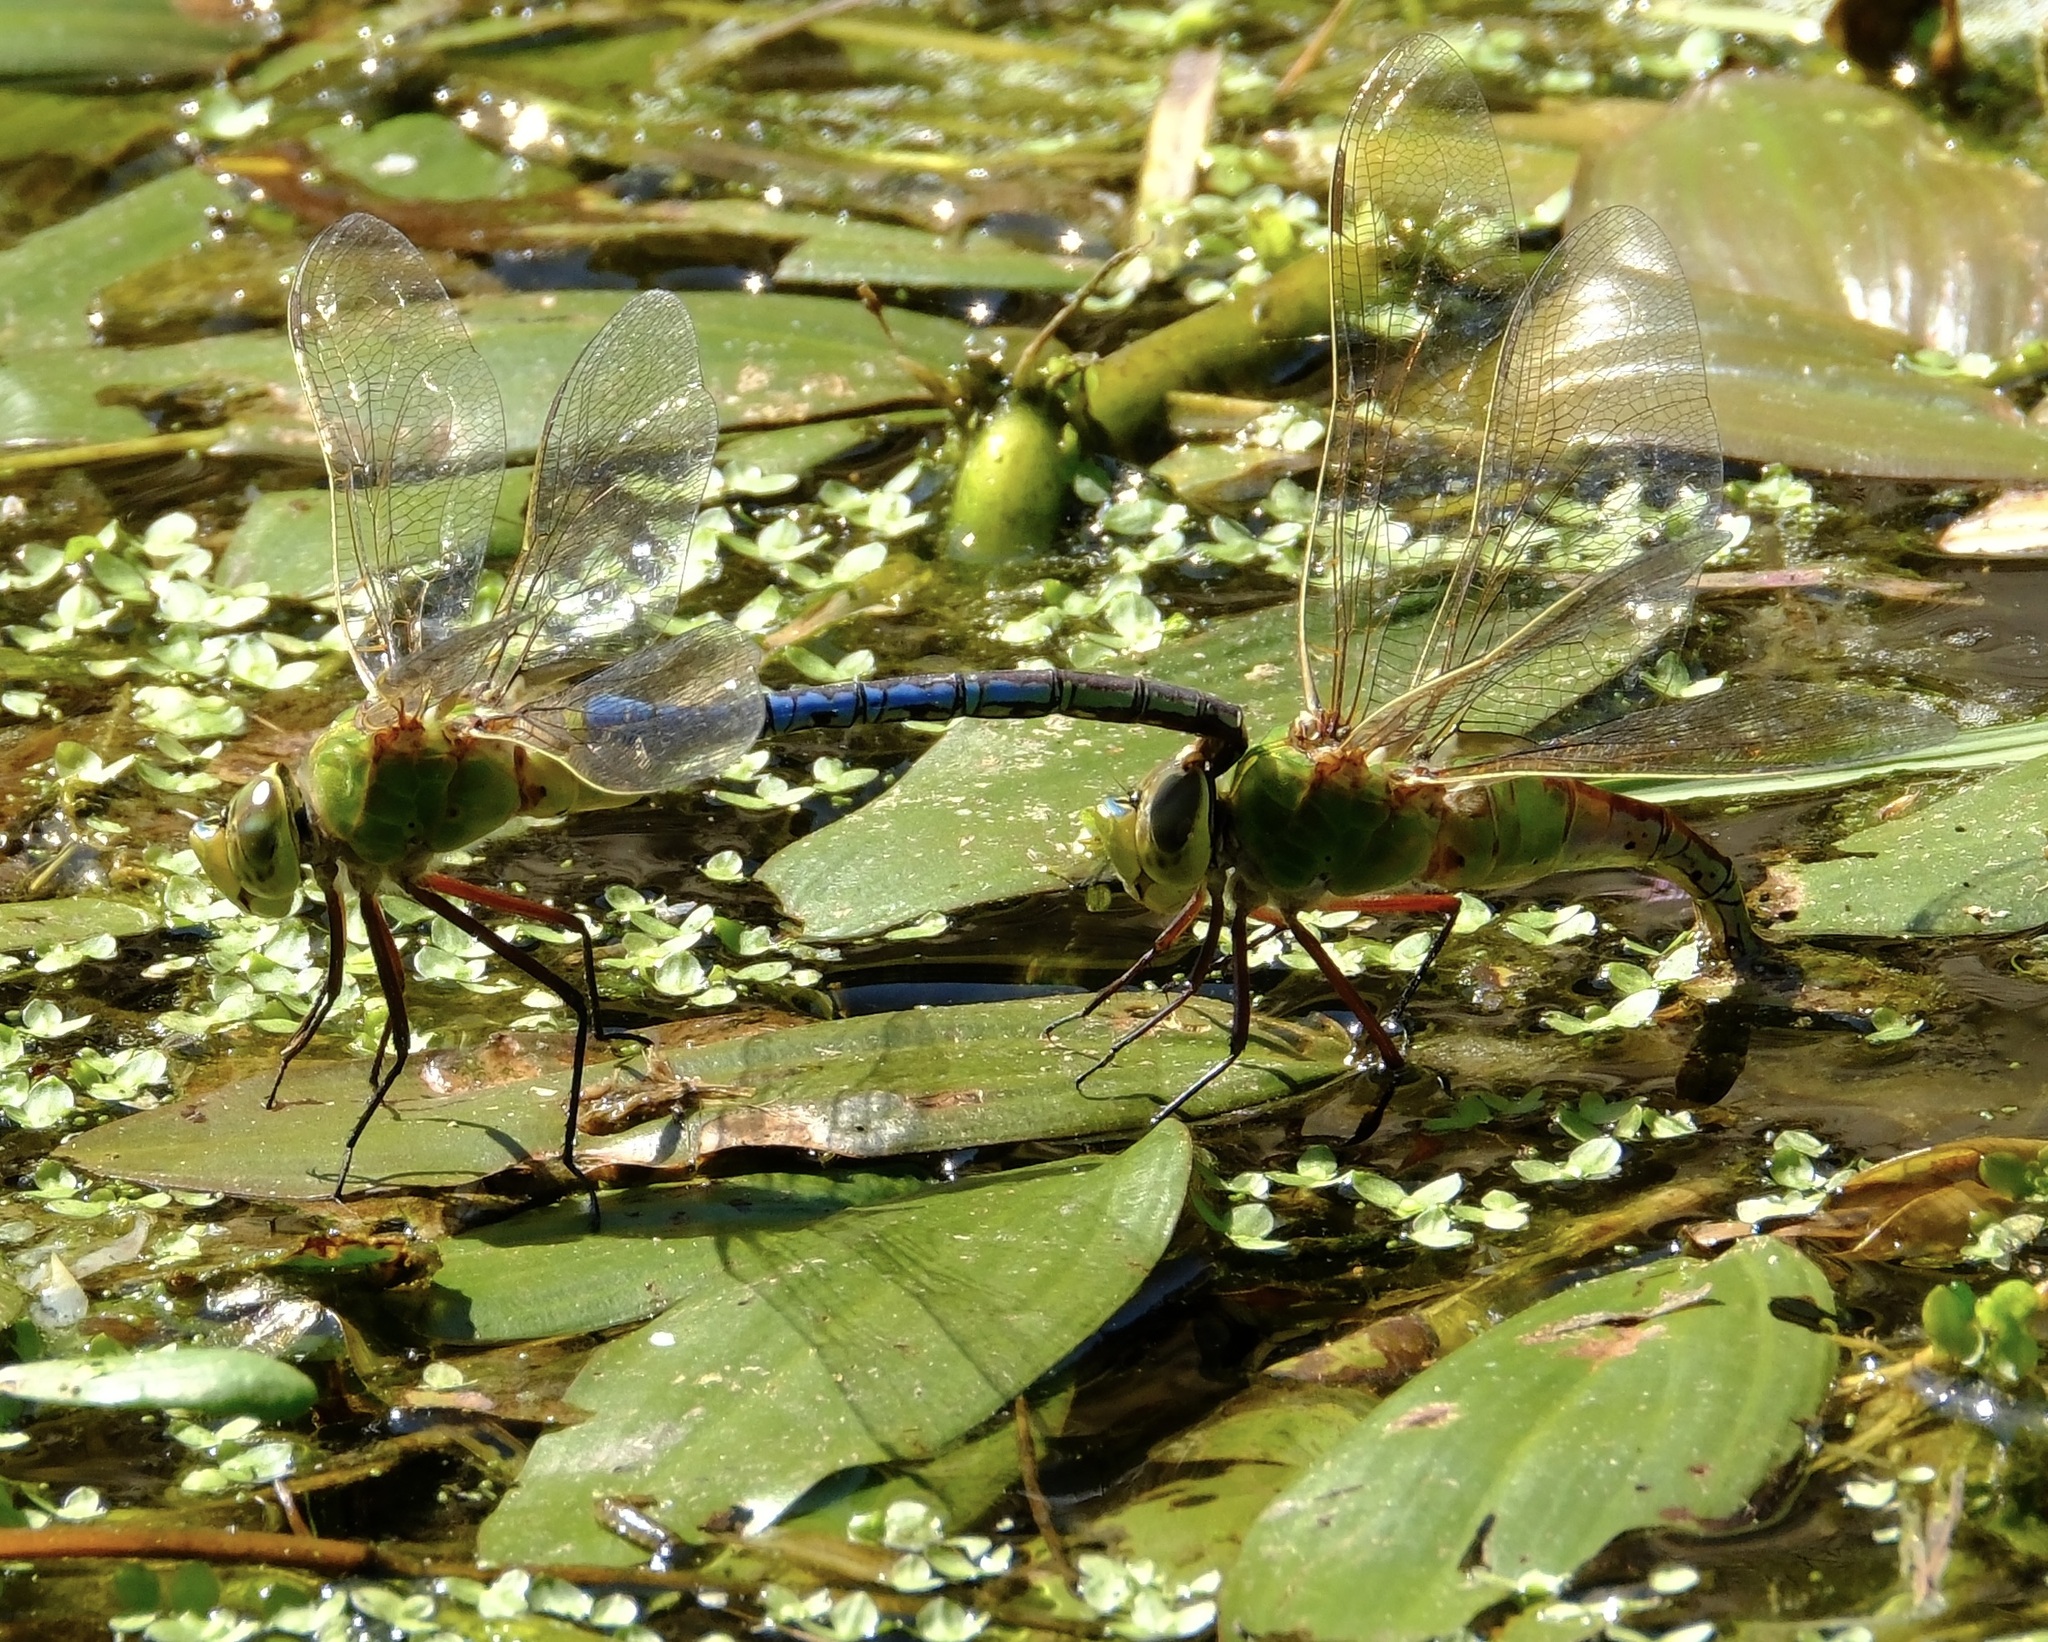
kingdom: Animalia
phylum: Arthropoda
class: Insecta
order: Odonata
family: Aeshnidae
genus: Anax
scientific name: Anax junius
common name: Common green darner
